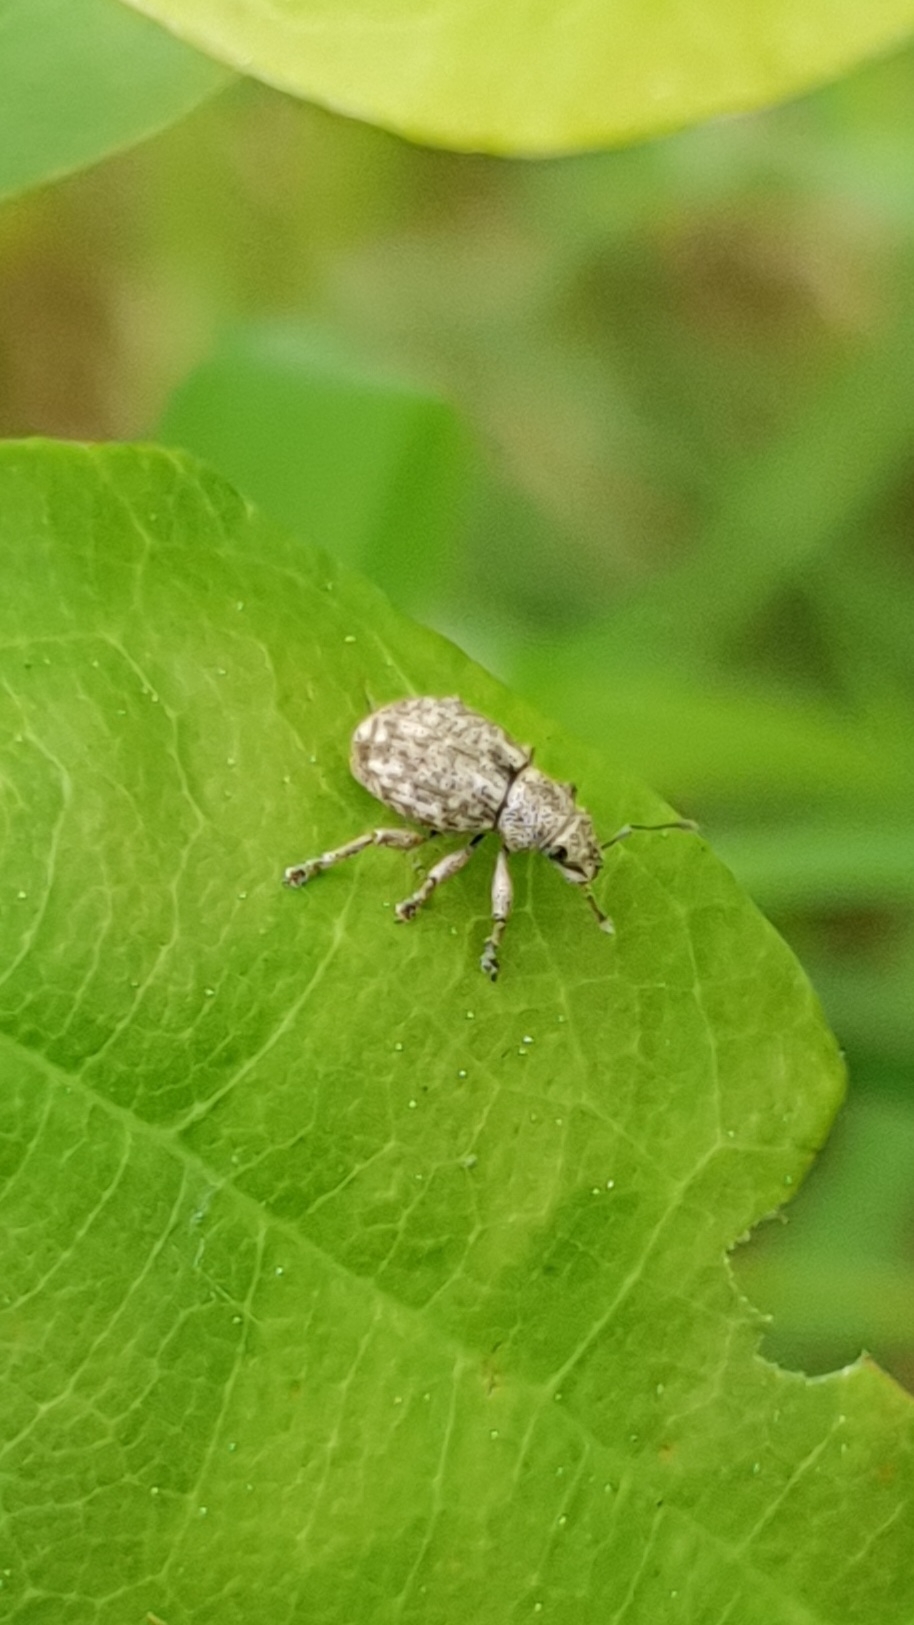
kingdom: Animalia
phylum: Arthropoda
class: Insecta
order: Coleoptera
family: Curculionidae
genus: Strophosoma
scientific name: Strophosoma capitatum
